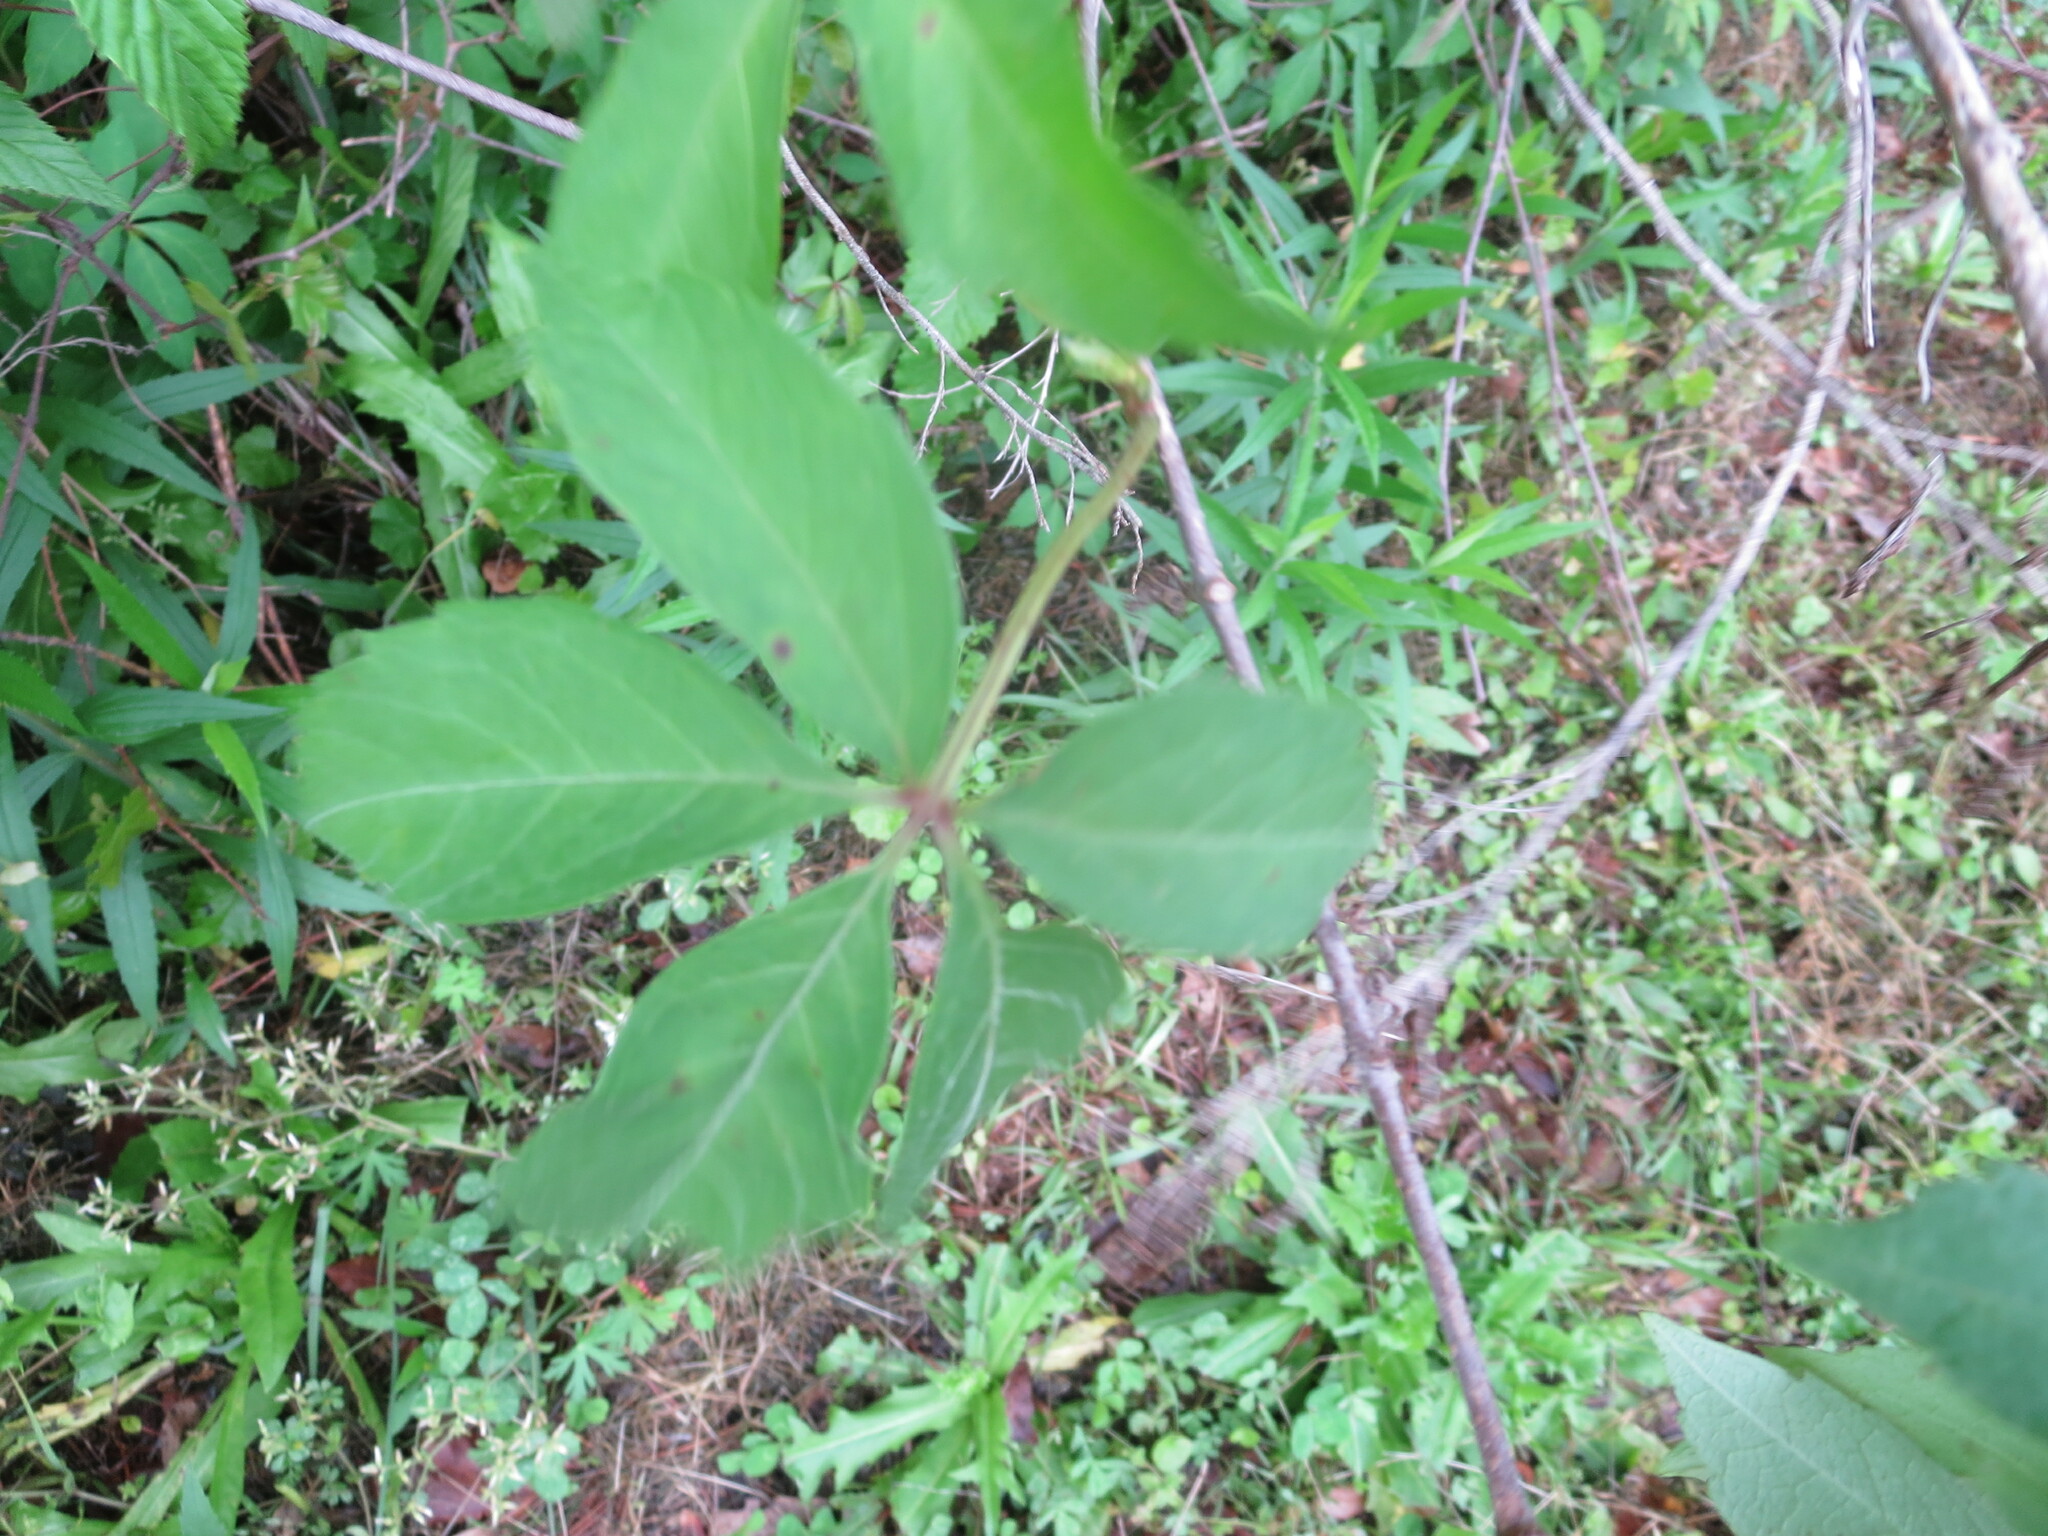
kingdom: Plantae
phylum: Tracheophyta
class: Magnoliopsida
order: Vitales
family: Vitaceae
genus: Parthenocissus
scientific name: Parthenocissus quinquefolia
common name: Virginia-creeper
